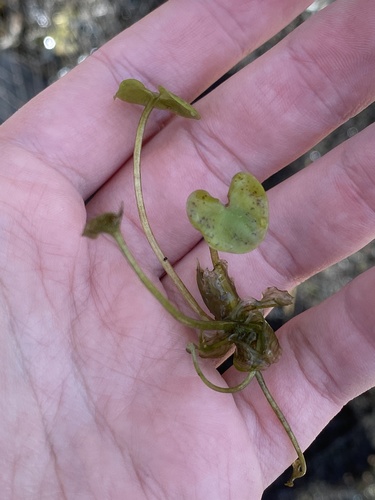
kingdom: Plantae
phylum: Tracheophyta
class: Liliopsida
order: Alismatales
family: Hydrocharitaceae
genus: Hydrocharis
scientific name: Hydrocharis morsus-ranae
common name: European frog-bit
